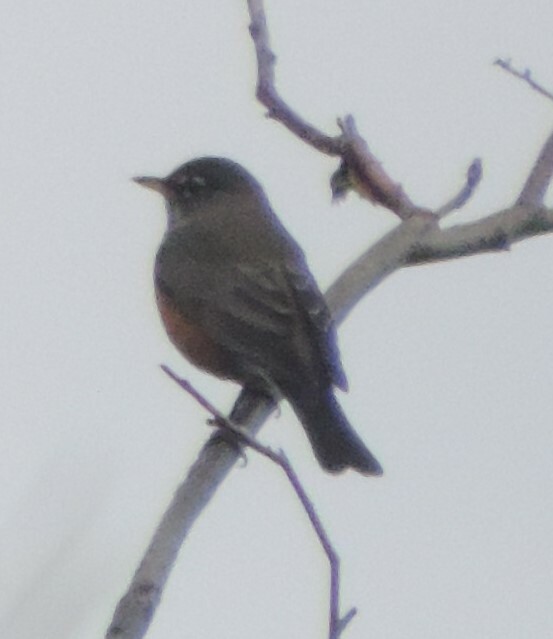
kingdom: Animalia
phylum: Chordata
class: Aves
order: Passeriformes
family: Turdidae
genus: Turdus
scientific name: Turdus migratorius
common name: American robin
